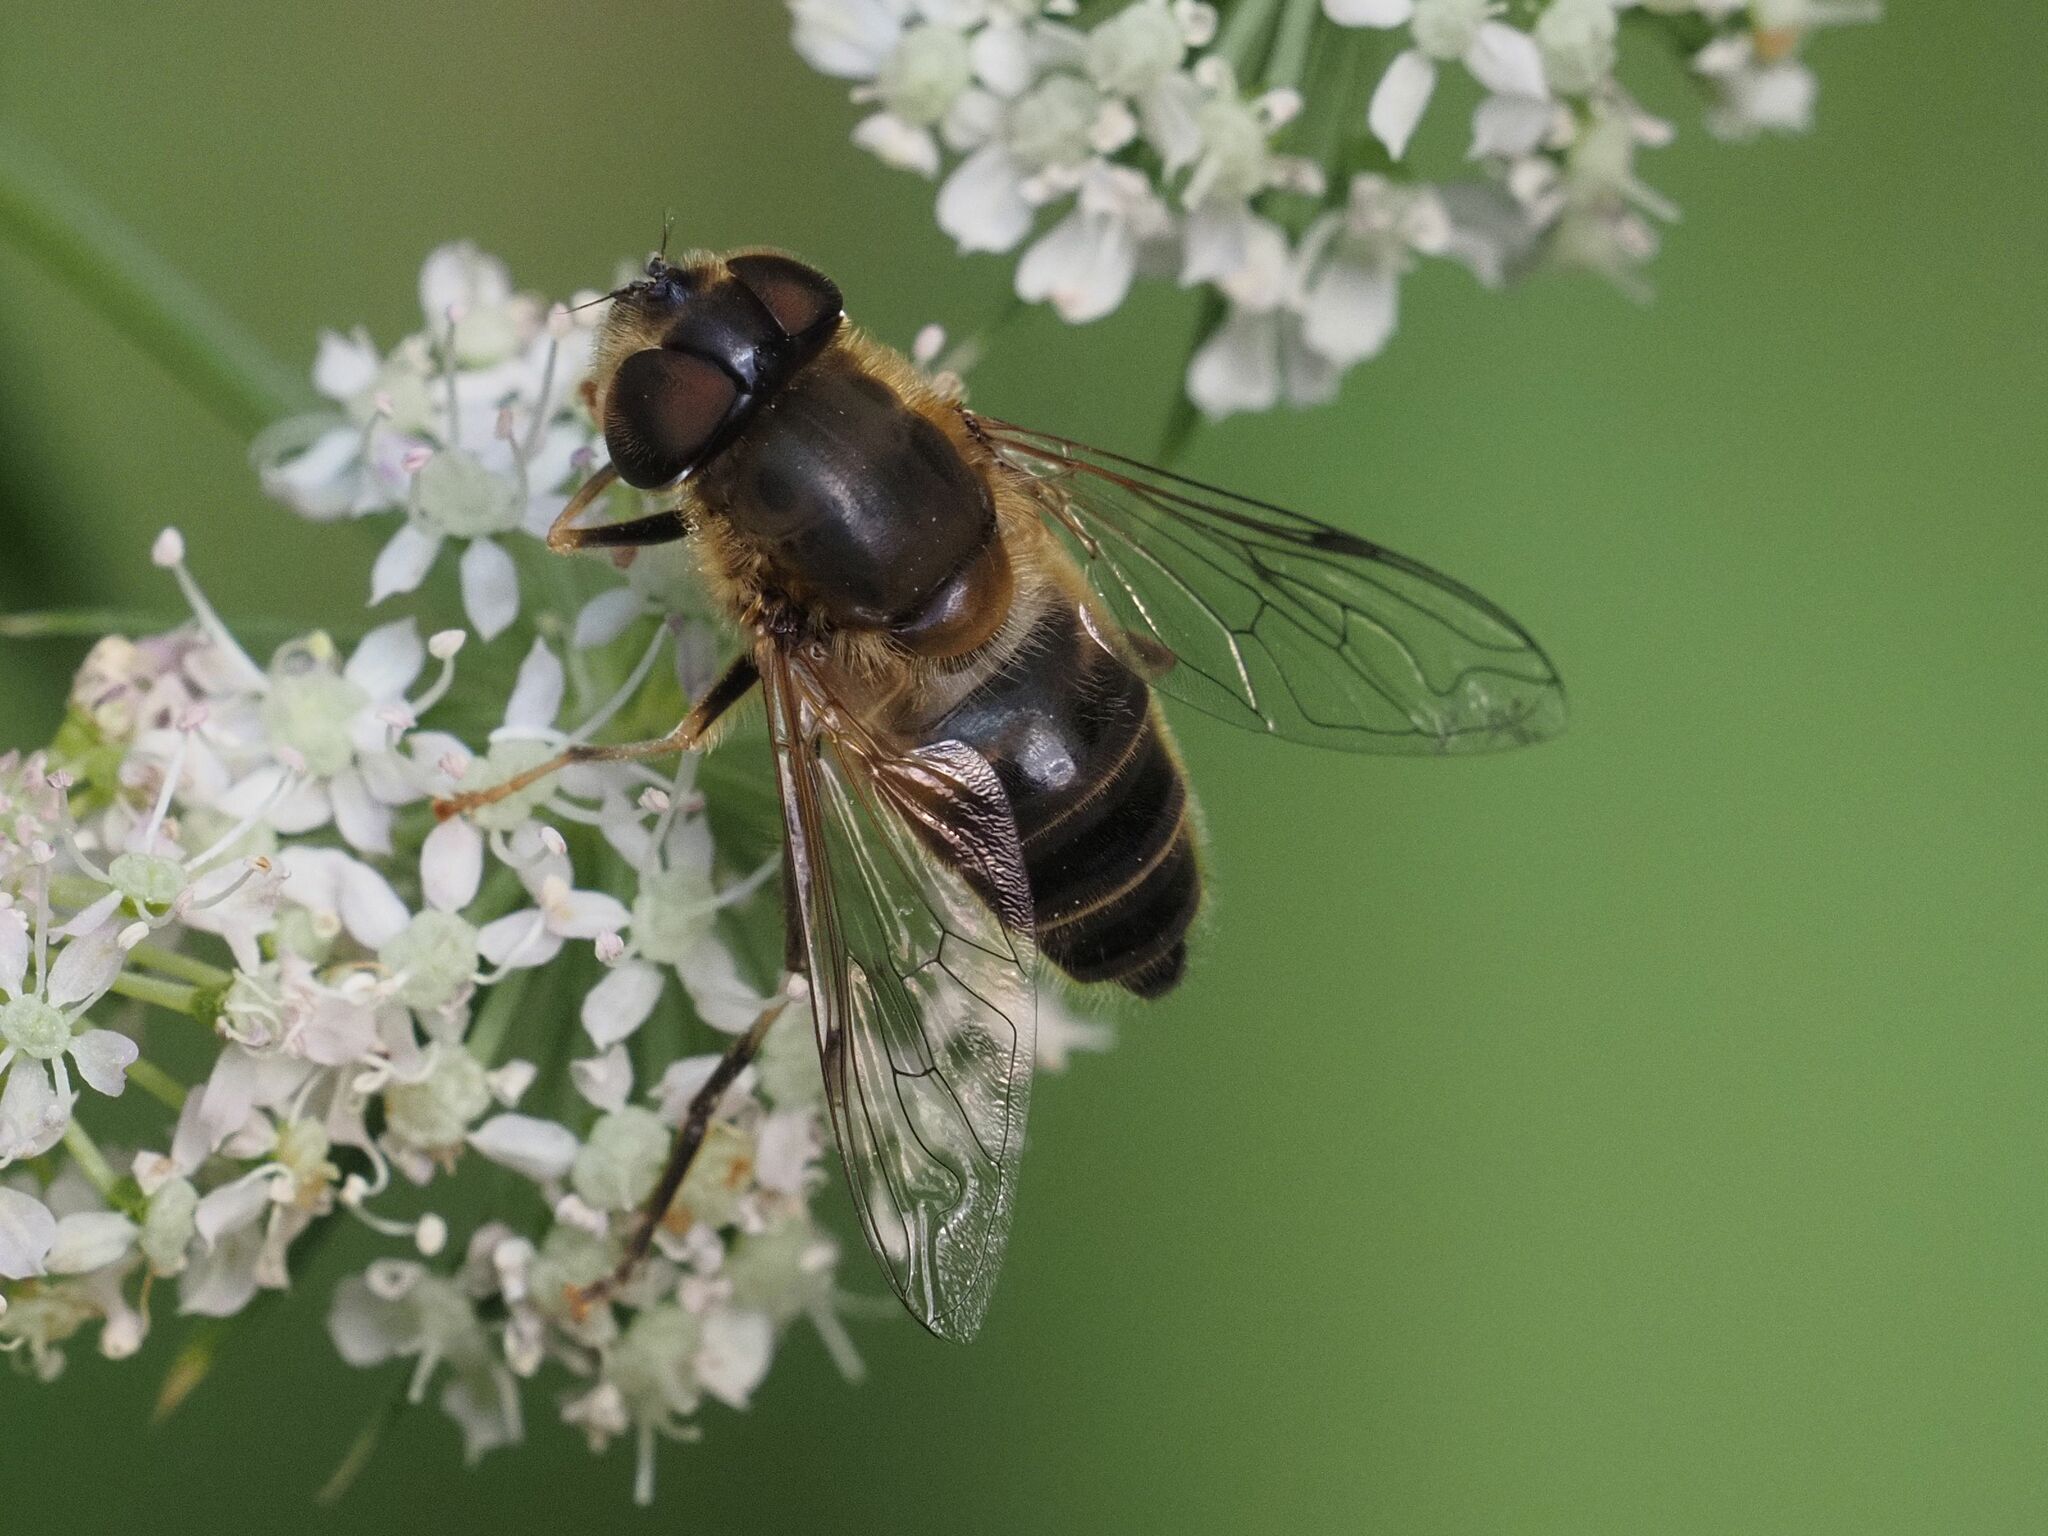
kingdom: Animalia
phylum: Arthropoda
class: Insecta
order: Diptera
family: Syrphidae
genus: Eristalis
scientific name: Eristalis pertinax
